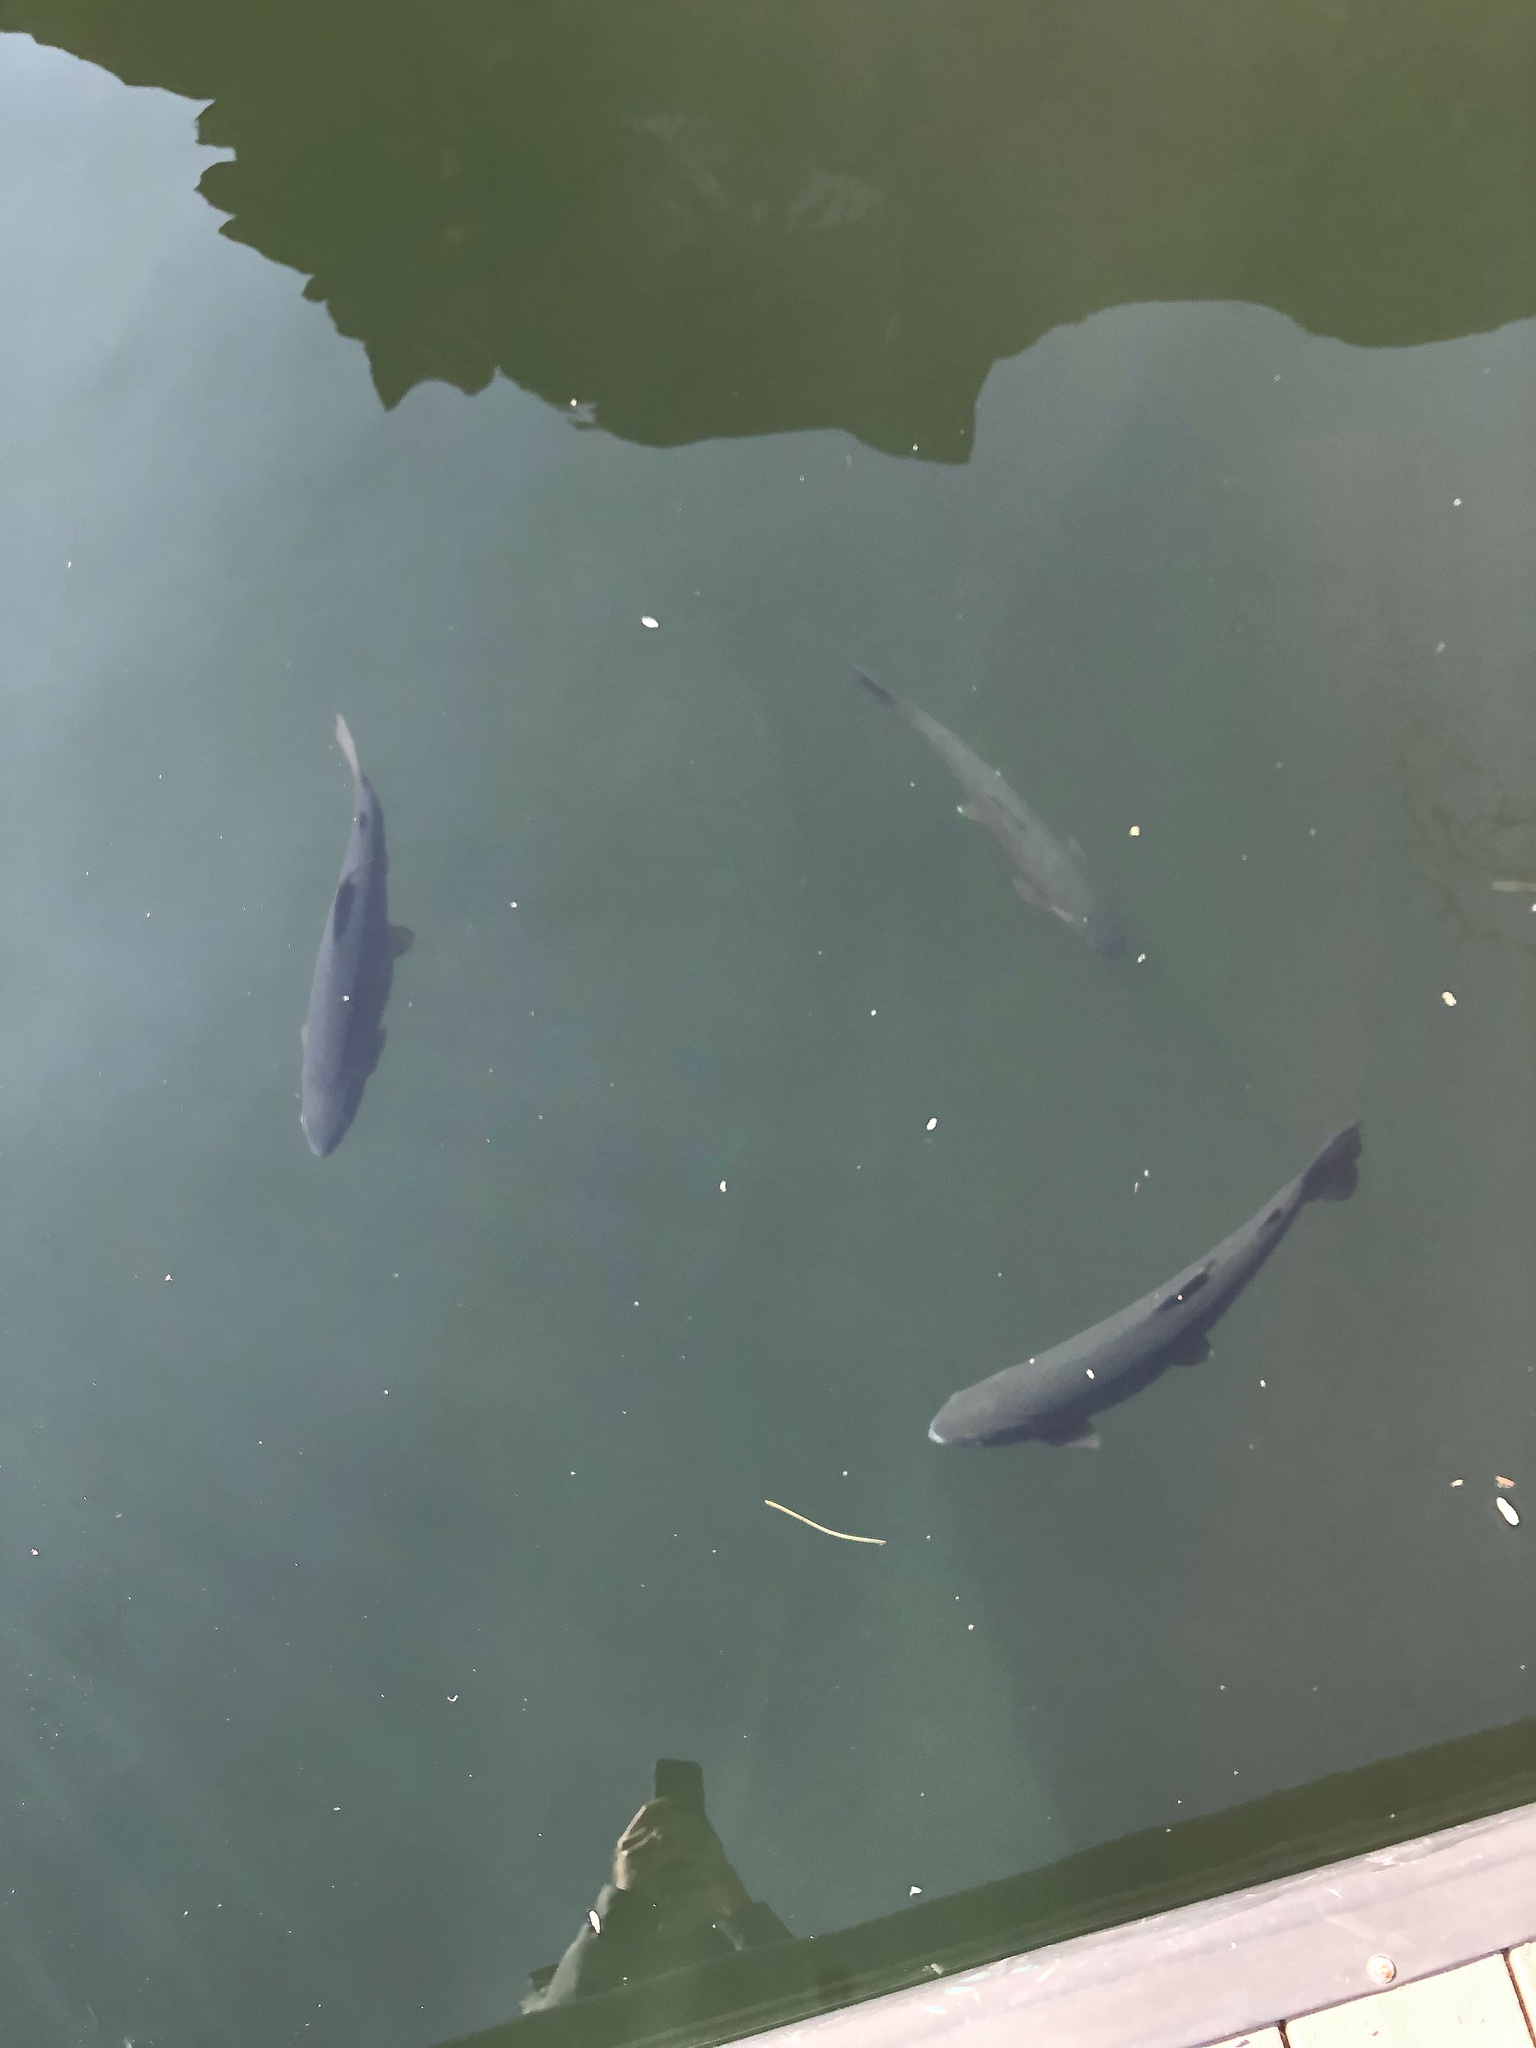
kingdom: Animalia
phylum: Chordata
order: Salmoniformes
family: Salmonidae
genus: Oncorhynchus
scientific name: Oncorhynchus mykiss
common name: Rainbow trout
